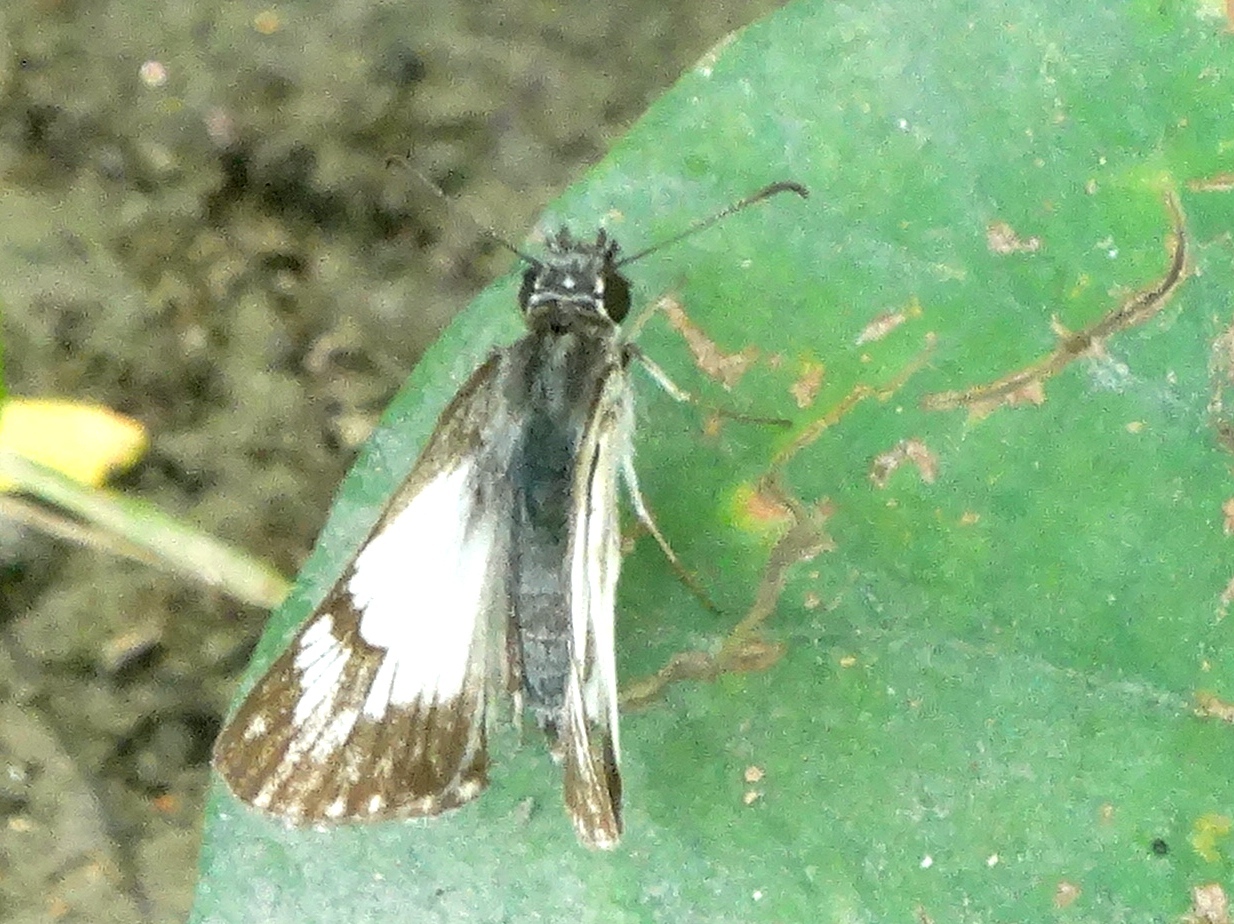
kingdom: Animalia
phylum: Arthropoda
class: Insecta
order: Lepidoptera
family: Hesperiidae
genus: Heliopetes
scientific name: Heliopetes macaira
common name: Turk's-cap white-skipper
